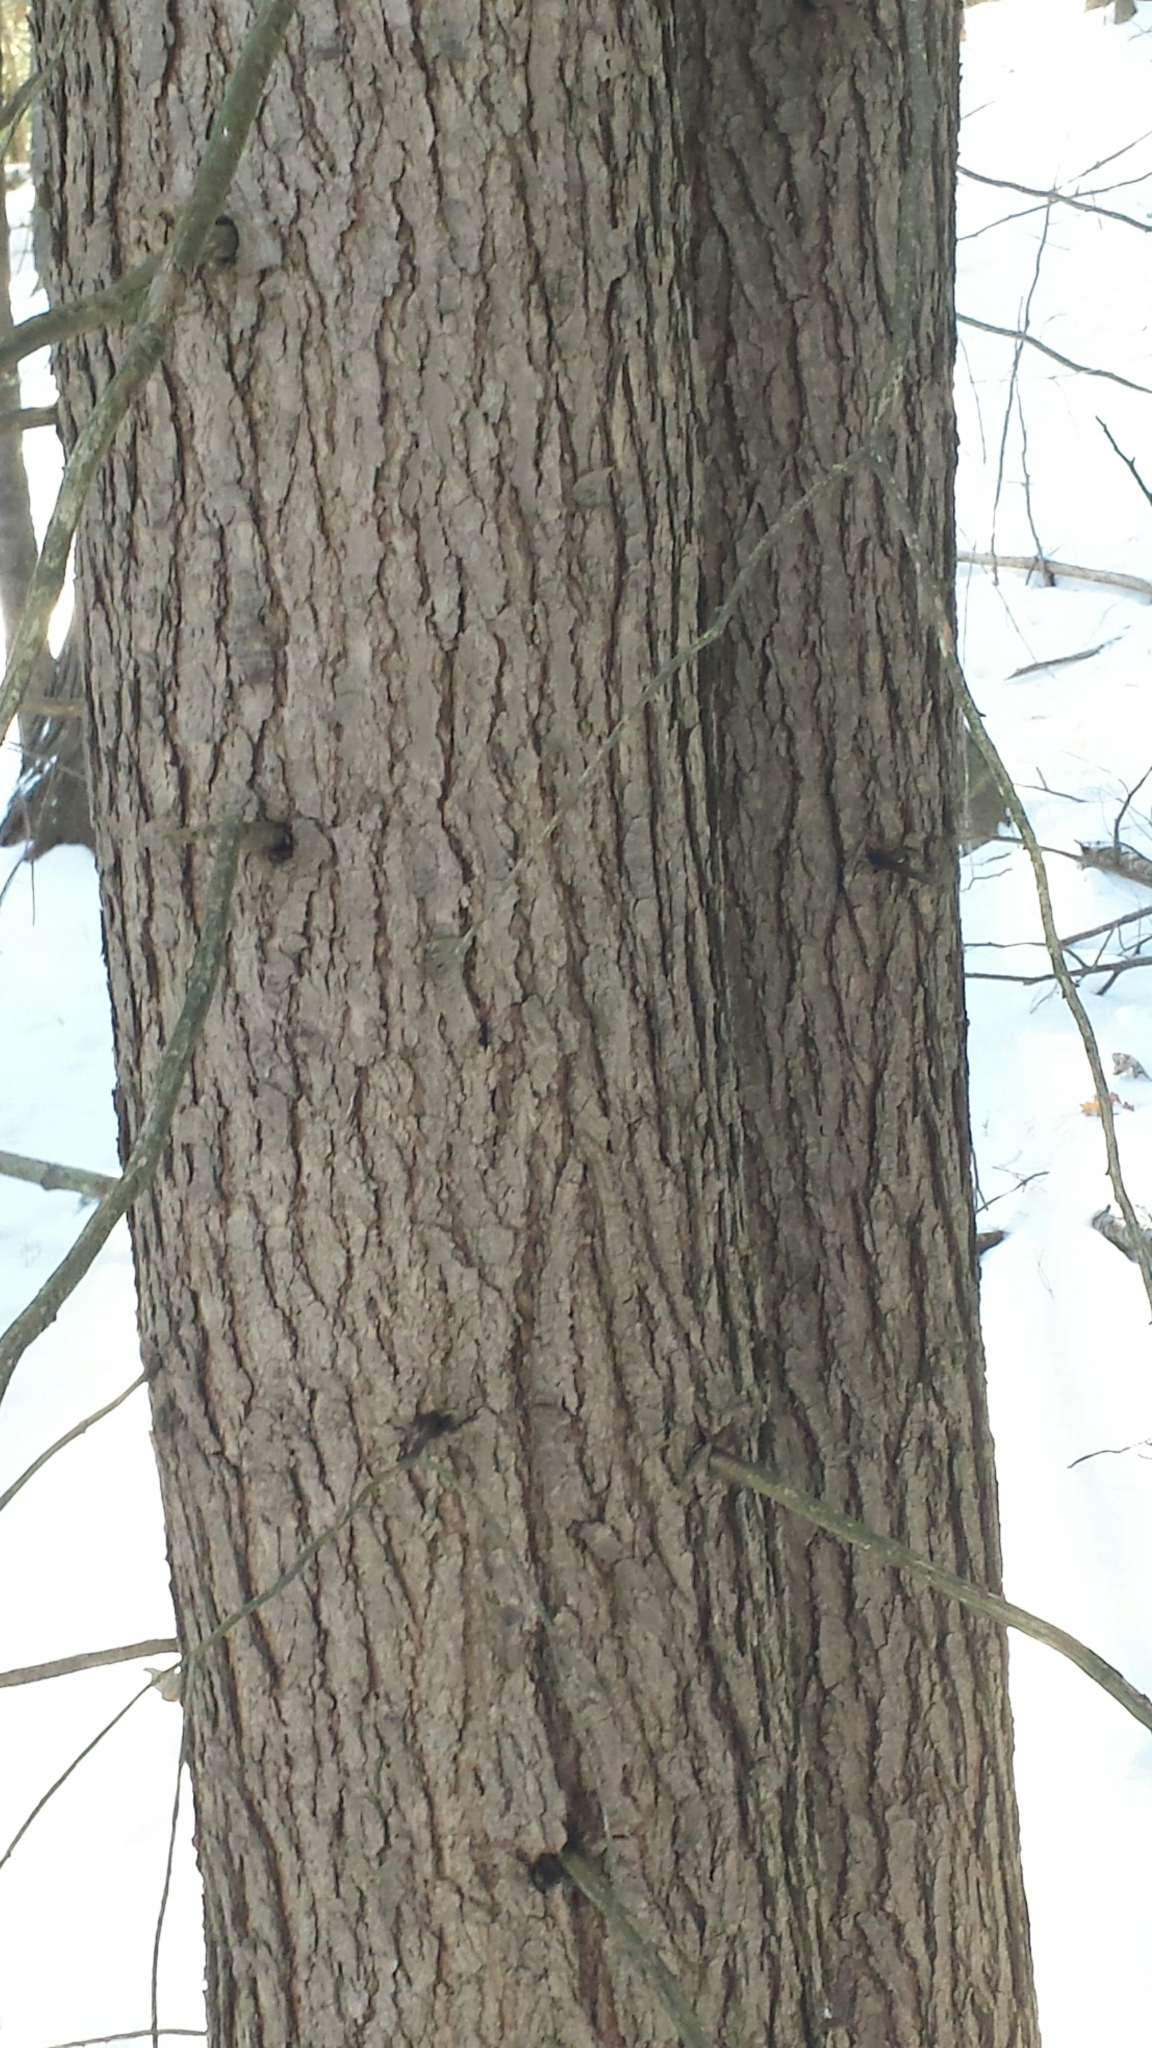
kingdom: Plantae
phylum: Tracheophyta
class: Pinopsida
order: Pinales
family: Pinaceae
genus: Tsuga
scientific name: Tsuga canadensis
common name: Eastern hemlock
